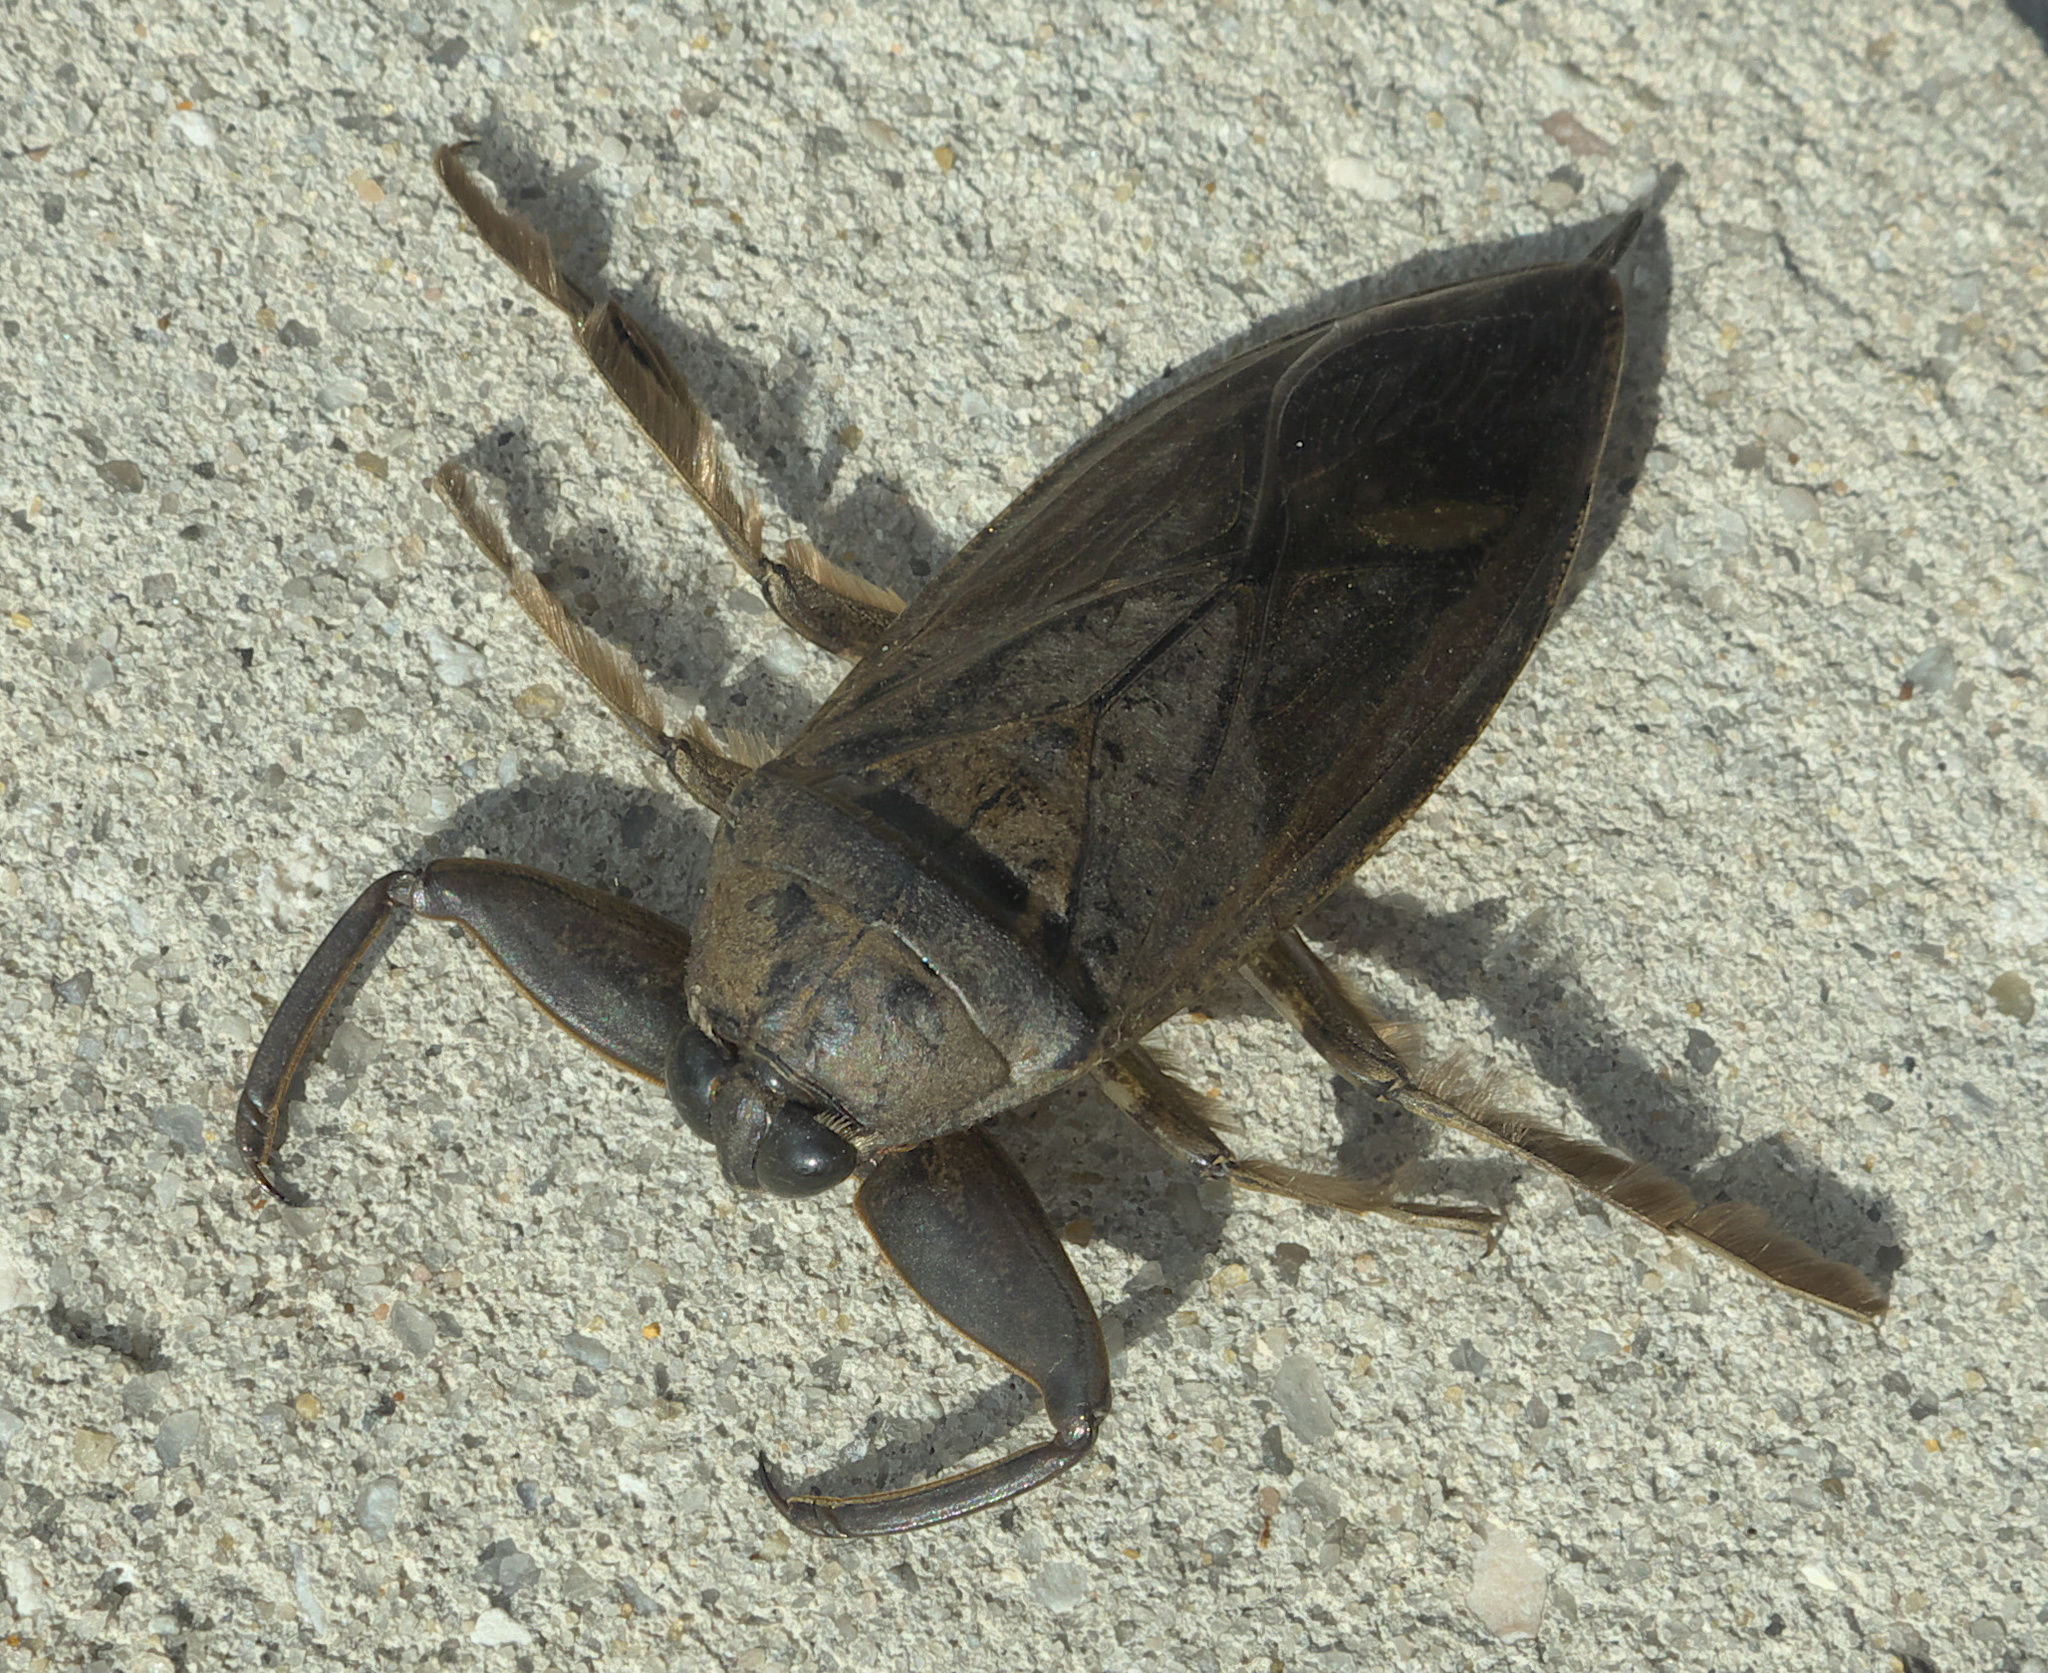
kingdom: Animalia
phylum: Arthropoda
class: Insecta
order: Hemiptera
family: Belostomatidae
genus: Lethocerus
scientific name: Lethocerus uhleri
